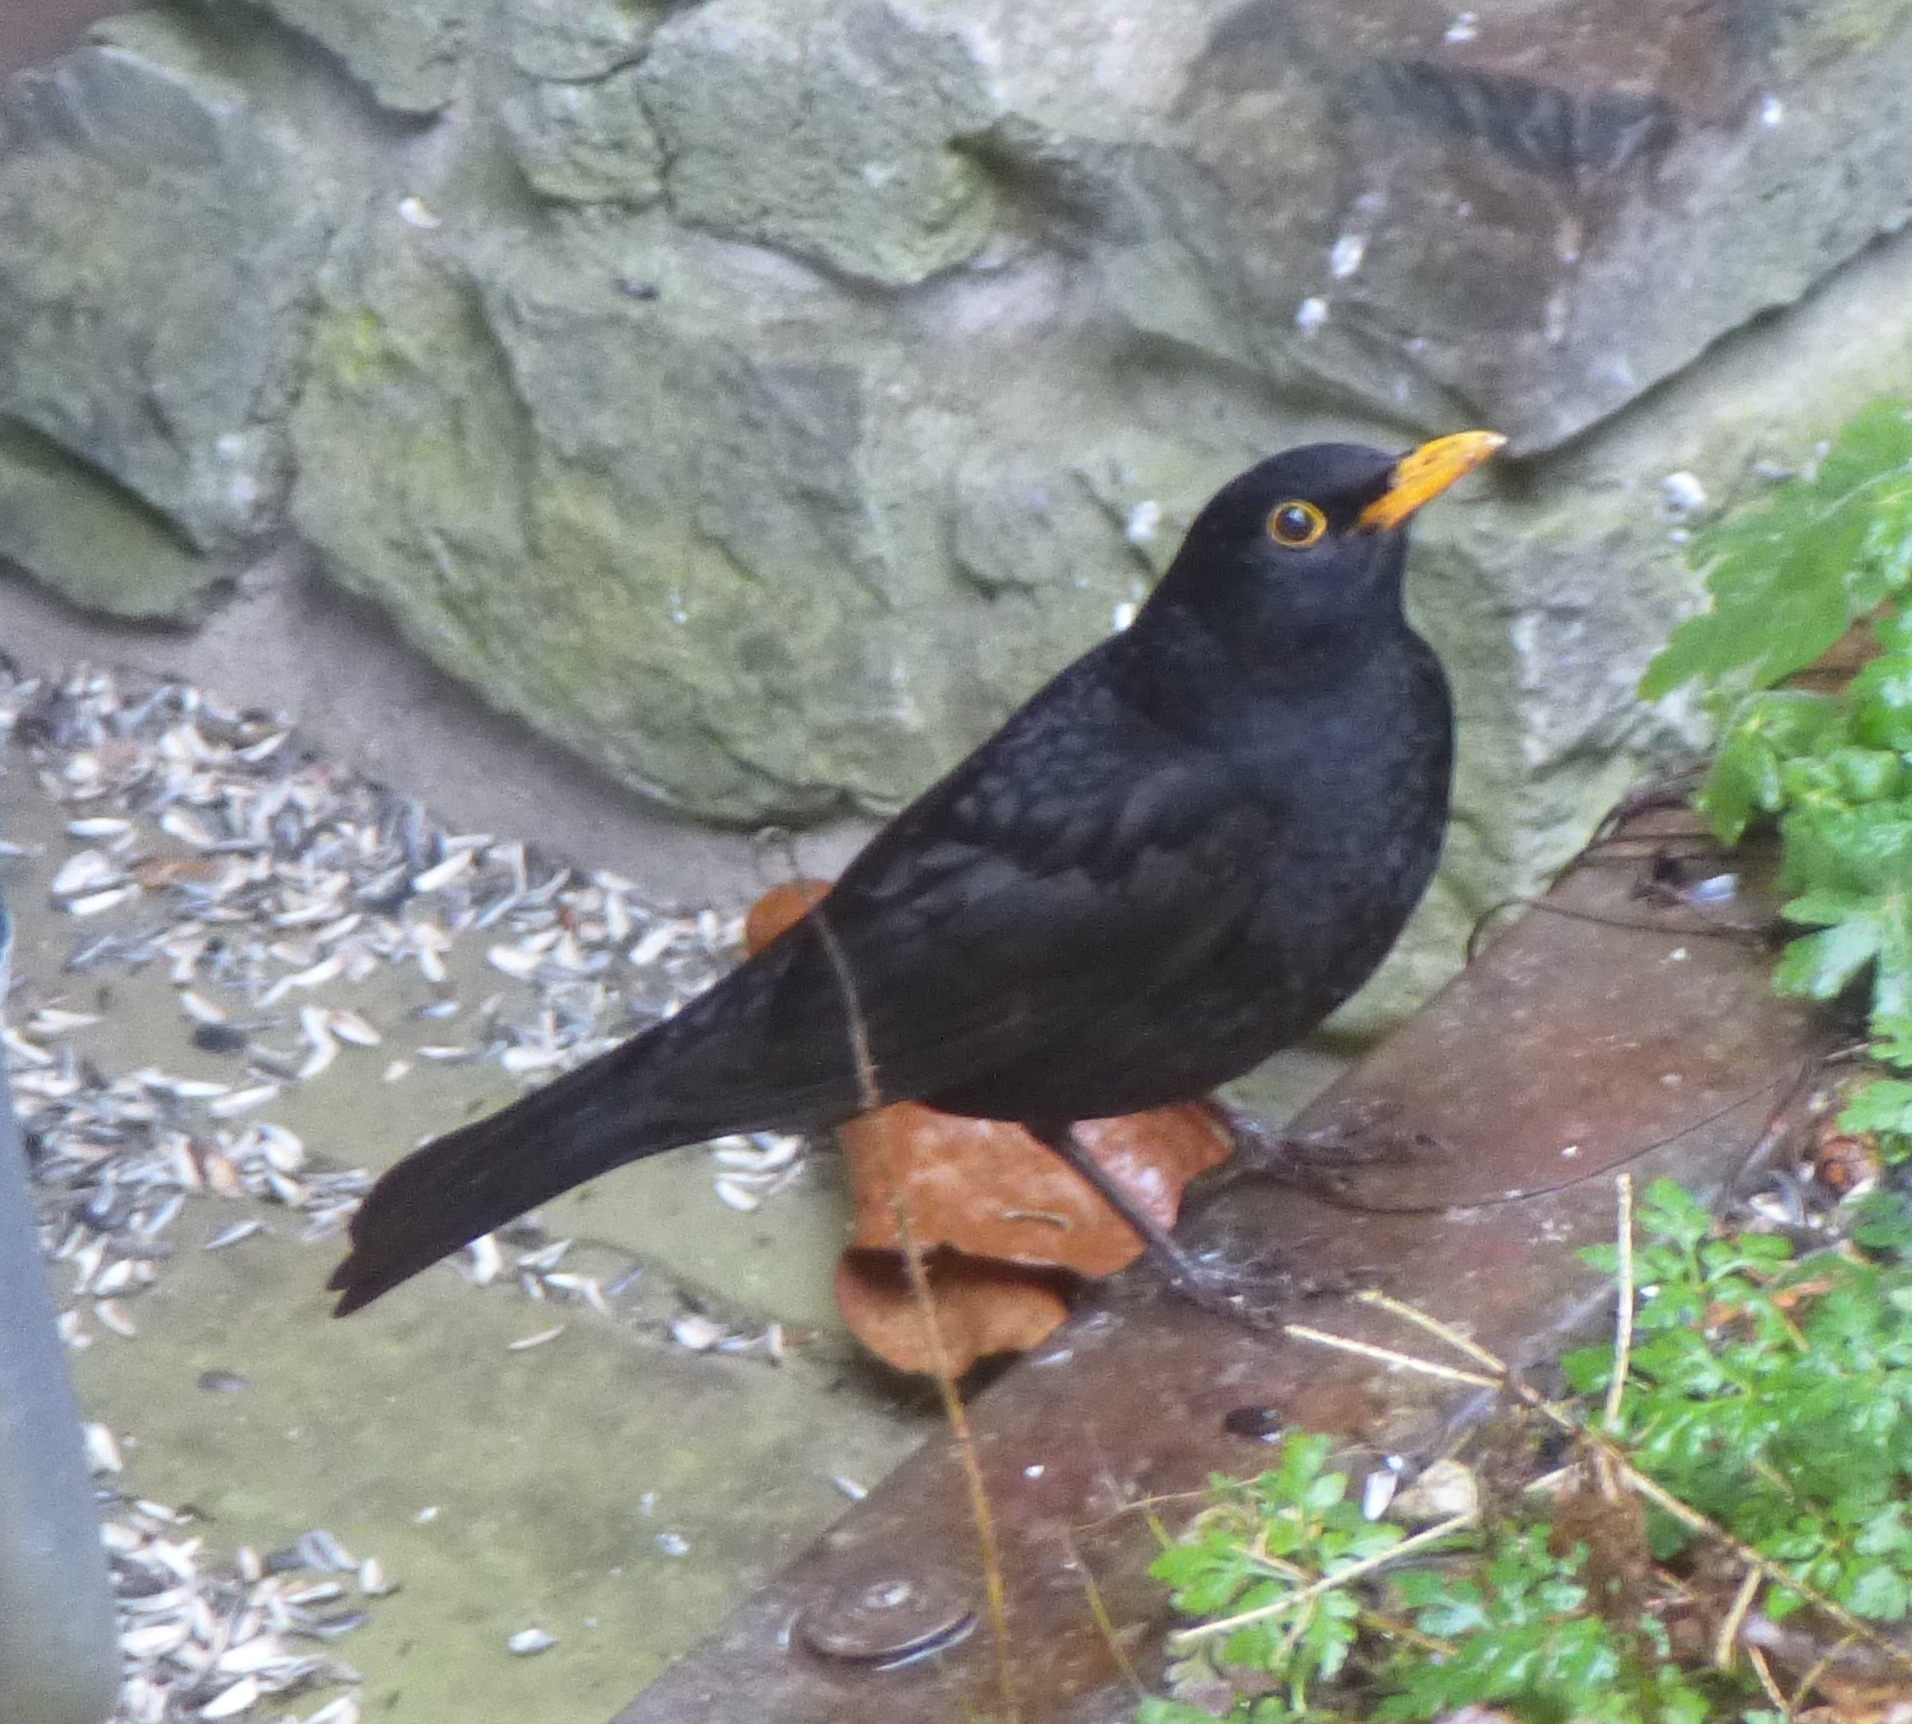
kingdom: Animalia
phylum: Chordata
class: Aves
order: Passeriformes
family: Turdidae
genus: Turdus
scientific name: Turdus merula
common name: Common blackbird
